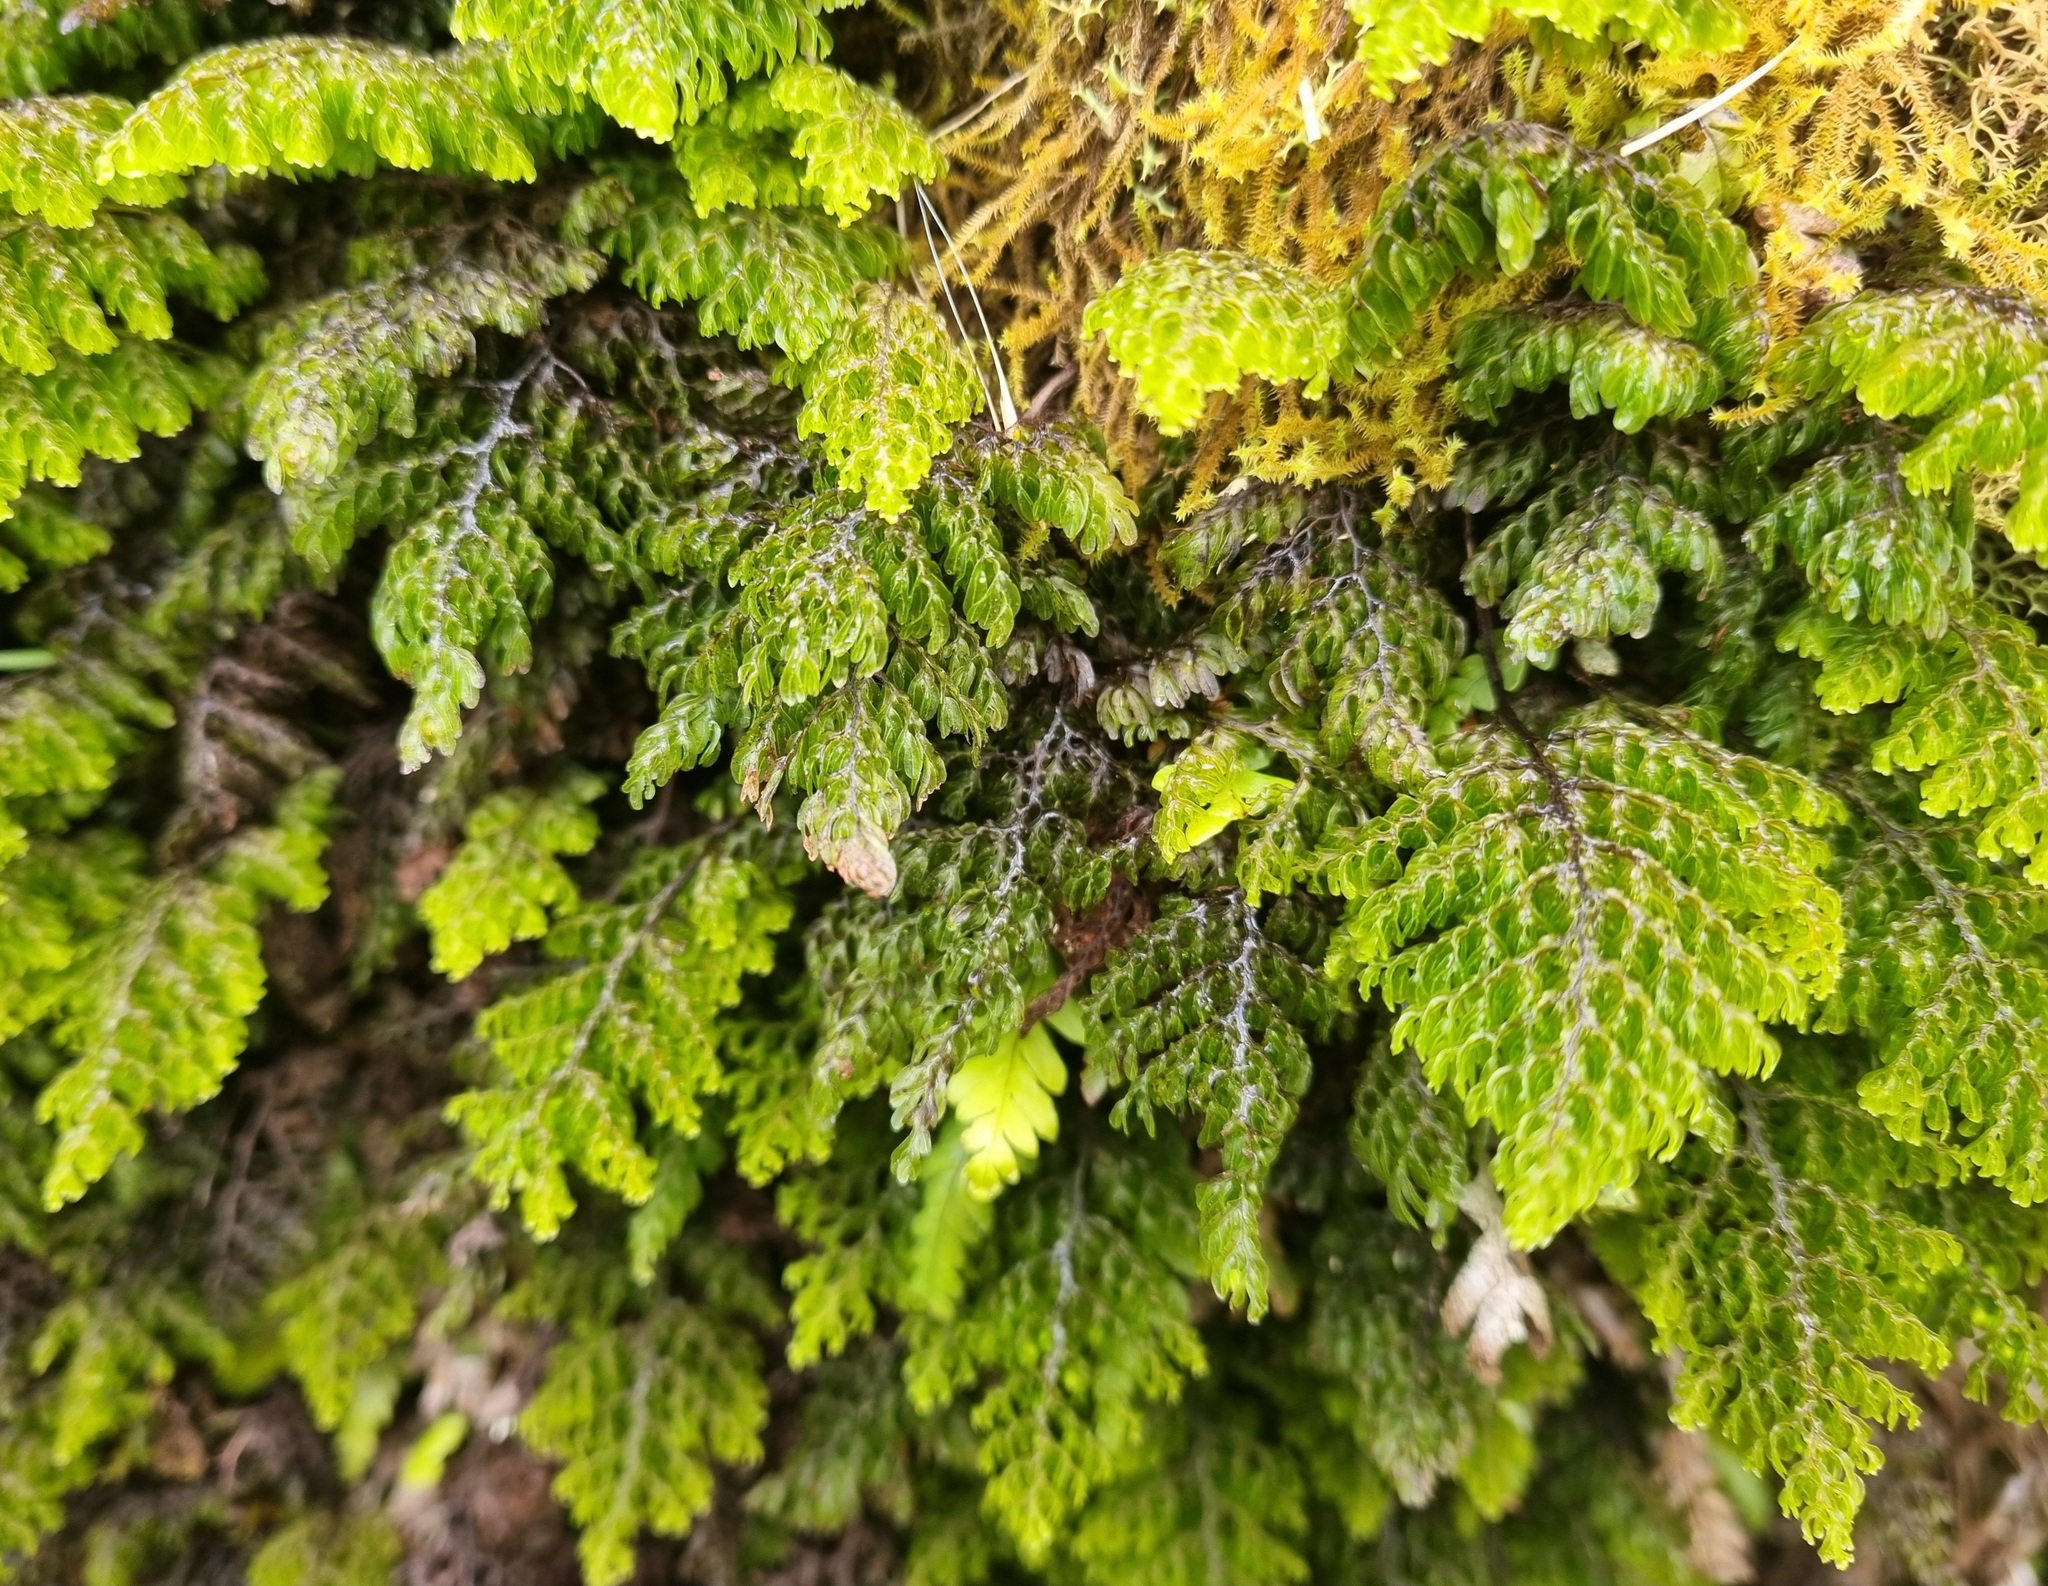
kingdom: Plantae
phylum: Tracheophyta
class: Polypodiopsida
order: Hymenophyllales
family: Hymenophyllaceae
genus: Hymenophyllum
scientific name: Hymenophyllum sanguinolentum
